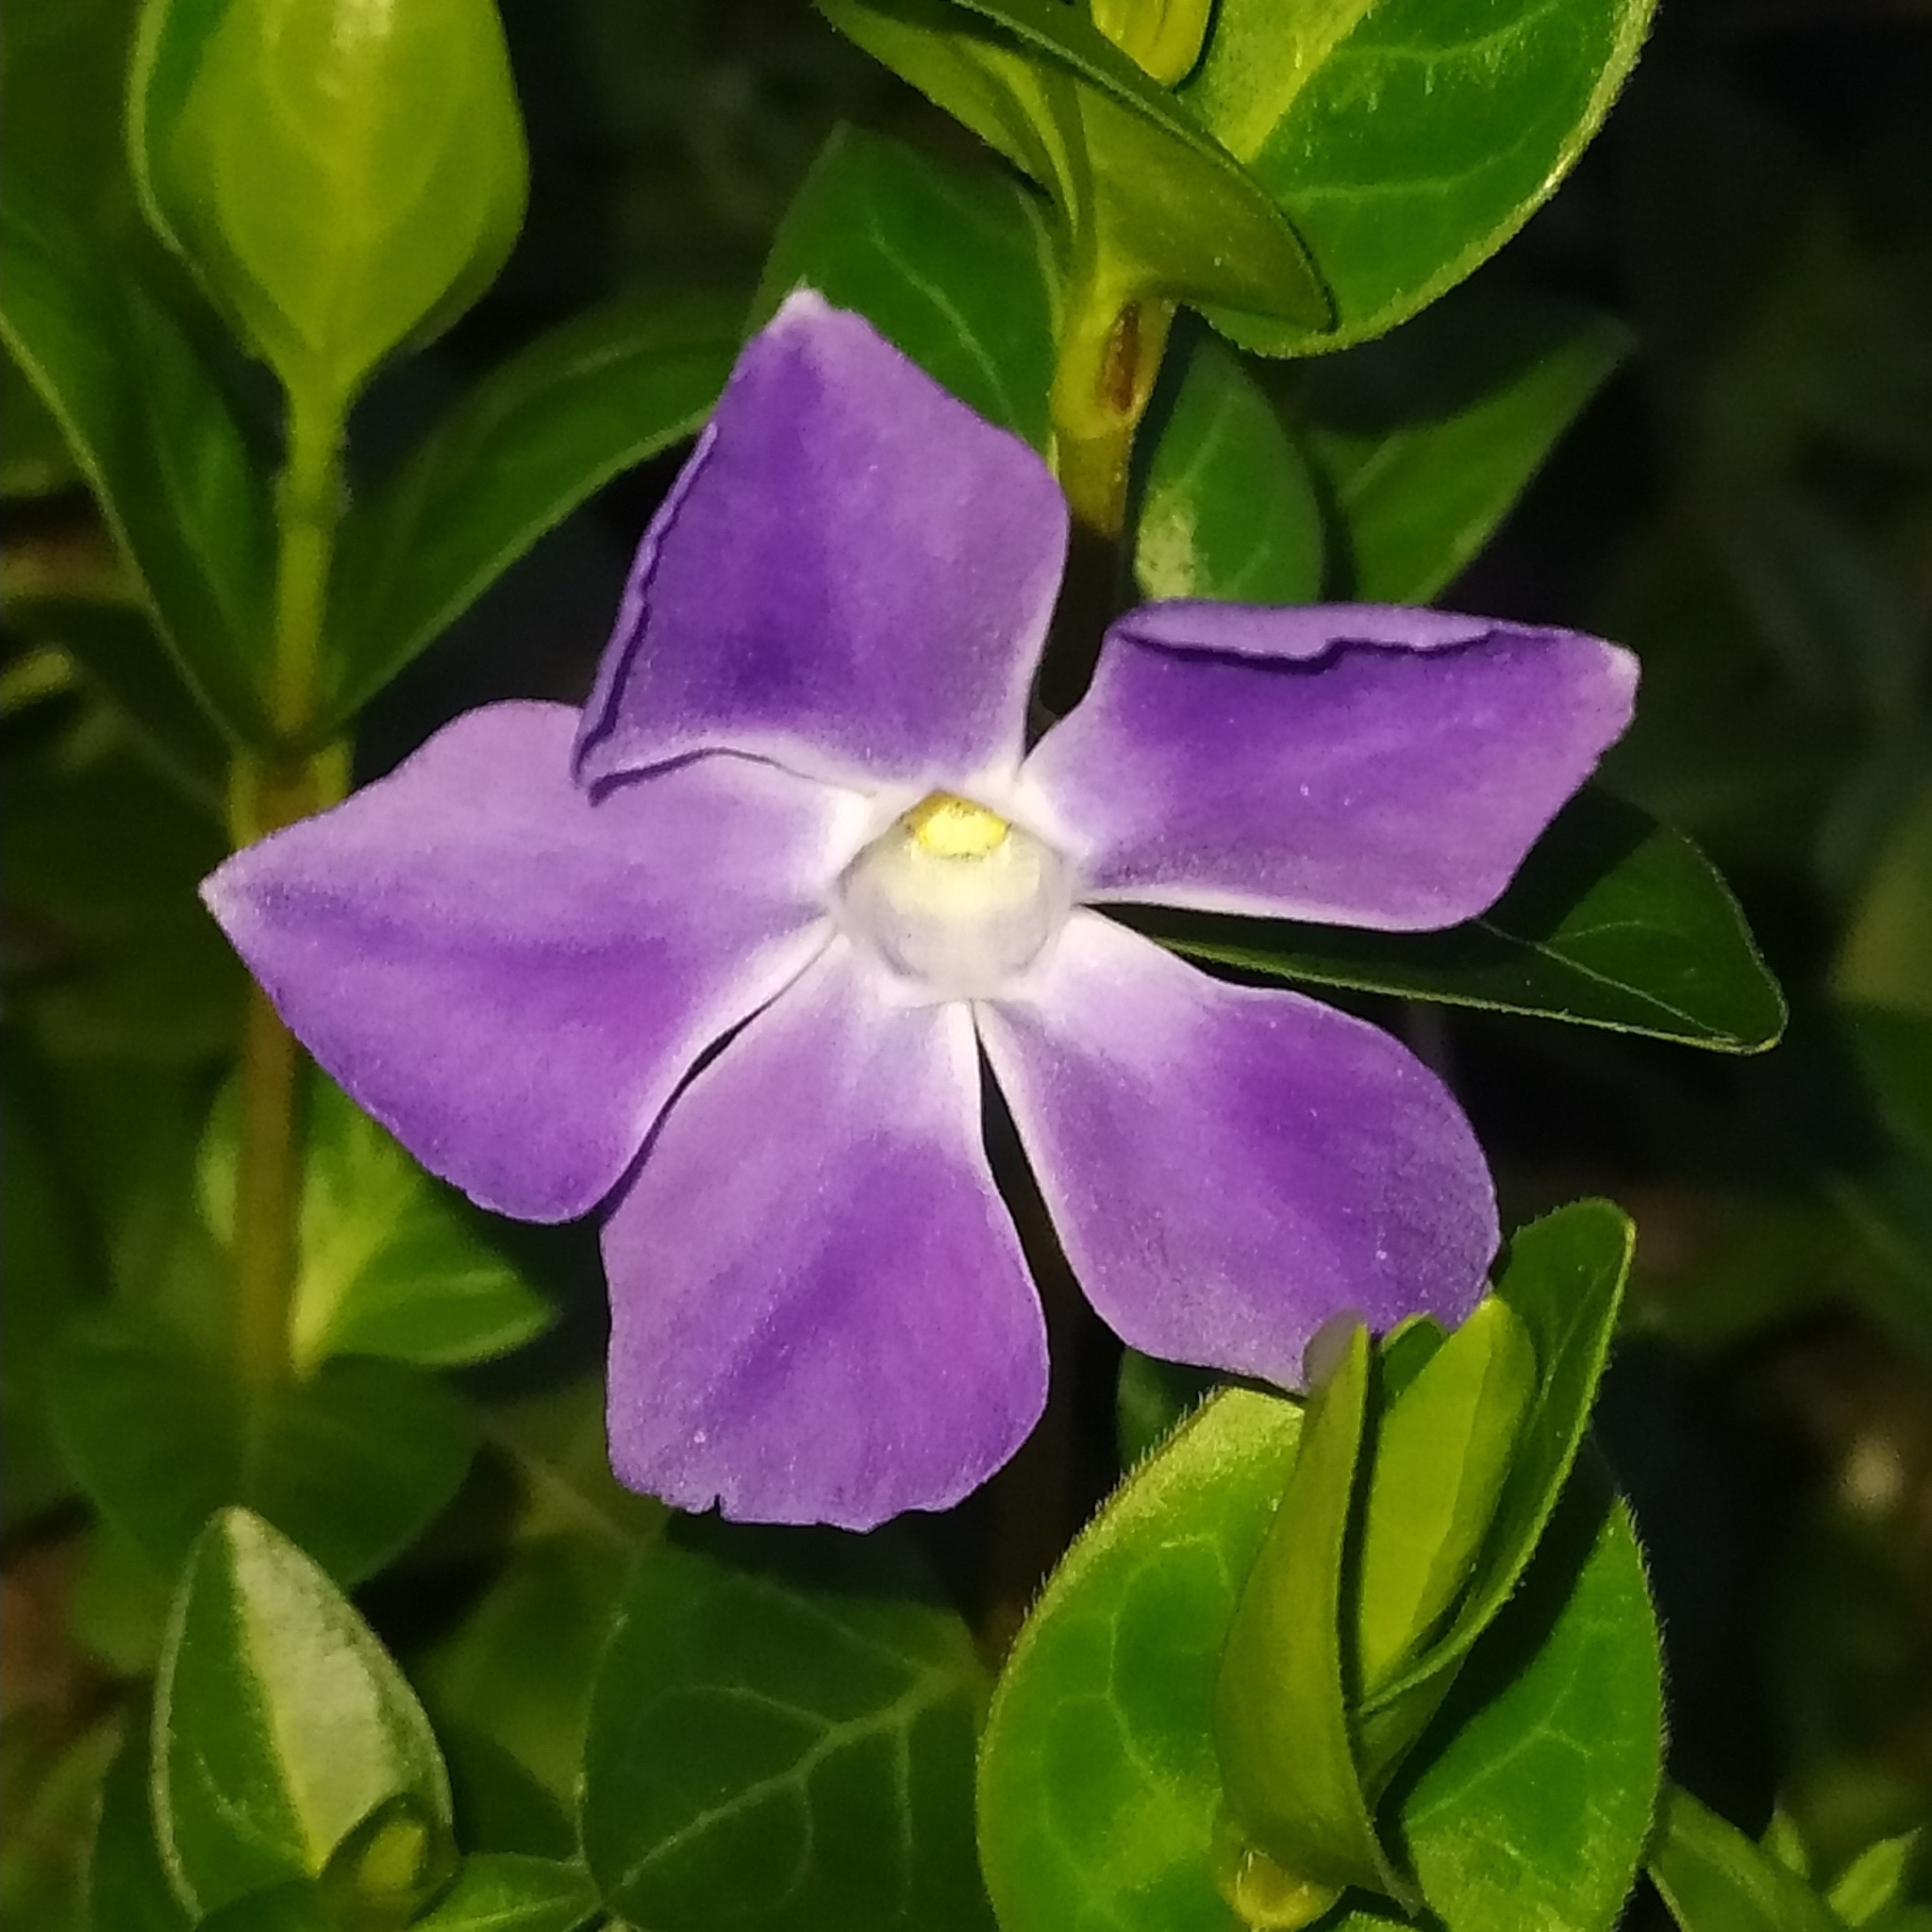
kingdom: Plantae
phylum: Tracheophyta
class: Magnoliopsida
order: Gentianales
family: Apocynaceae
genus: Vinca
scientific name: Vinca major
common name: Greater periwinkle
